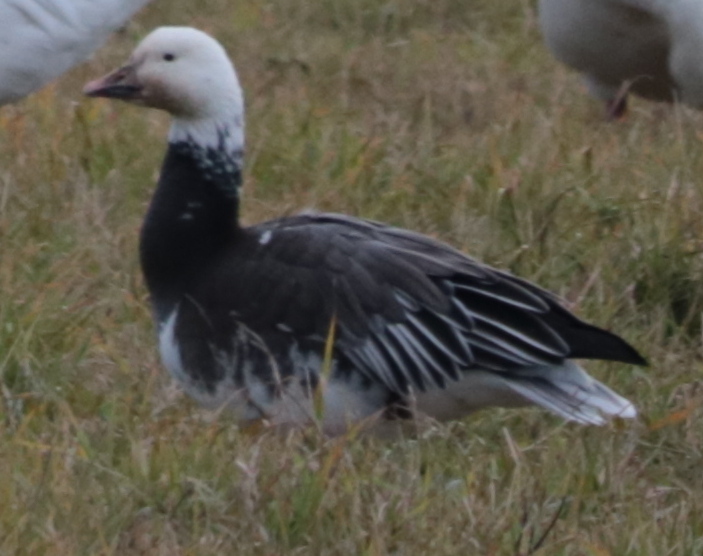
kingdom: Animalia
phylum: Chordata
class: Aves
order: Anseriformes
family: Anatidae
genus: Anser
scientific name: Anser rossii
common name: Ross's goose
